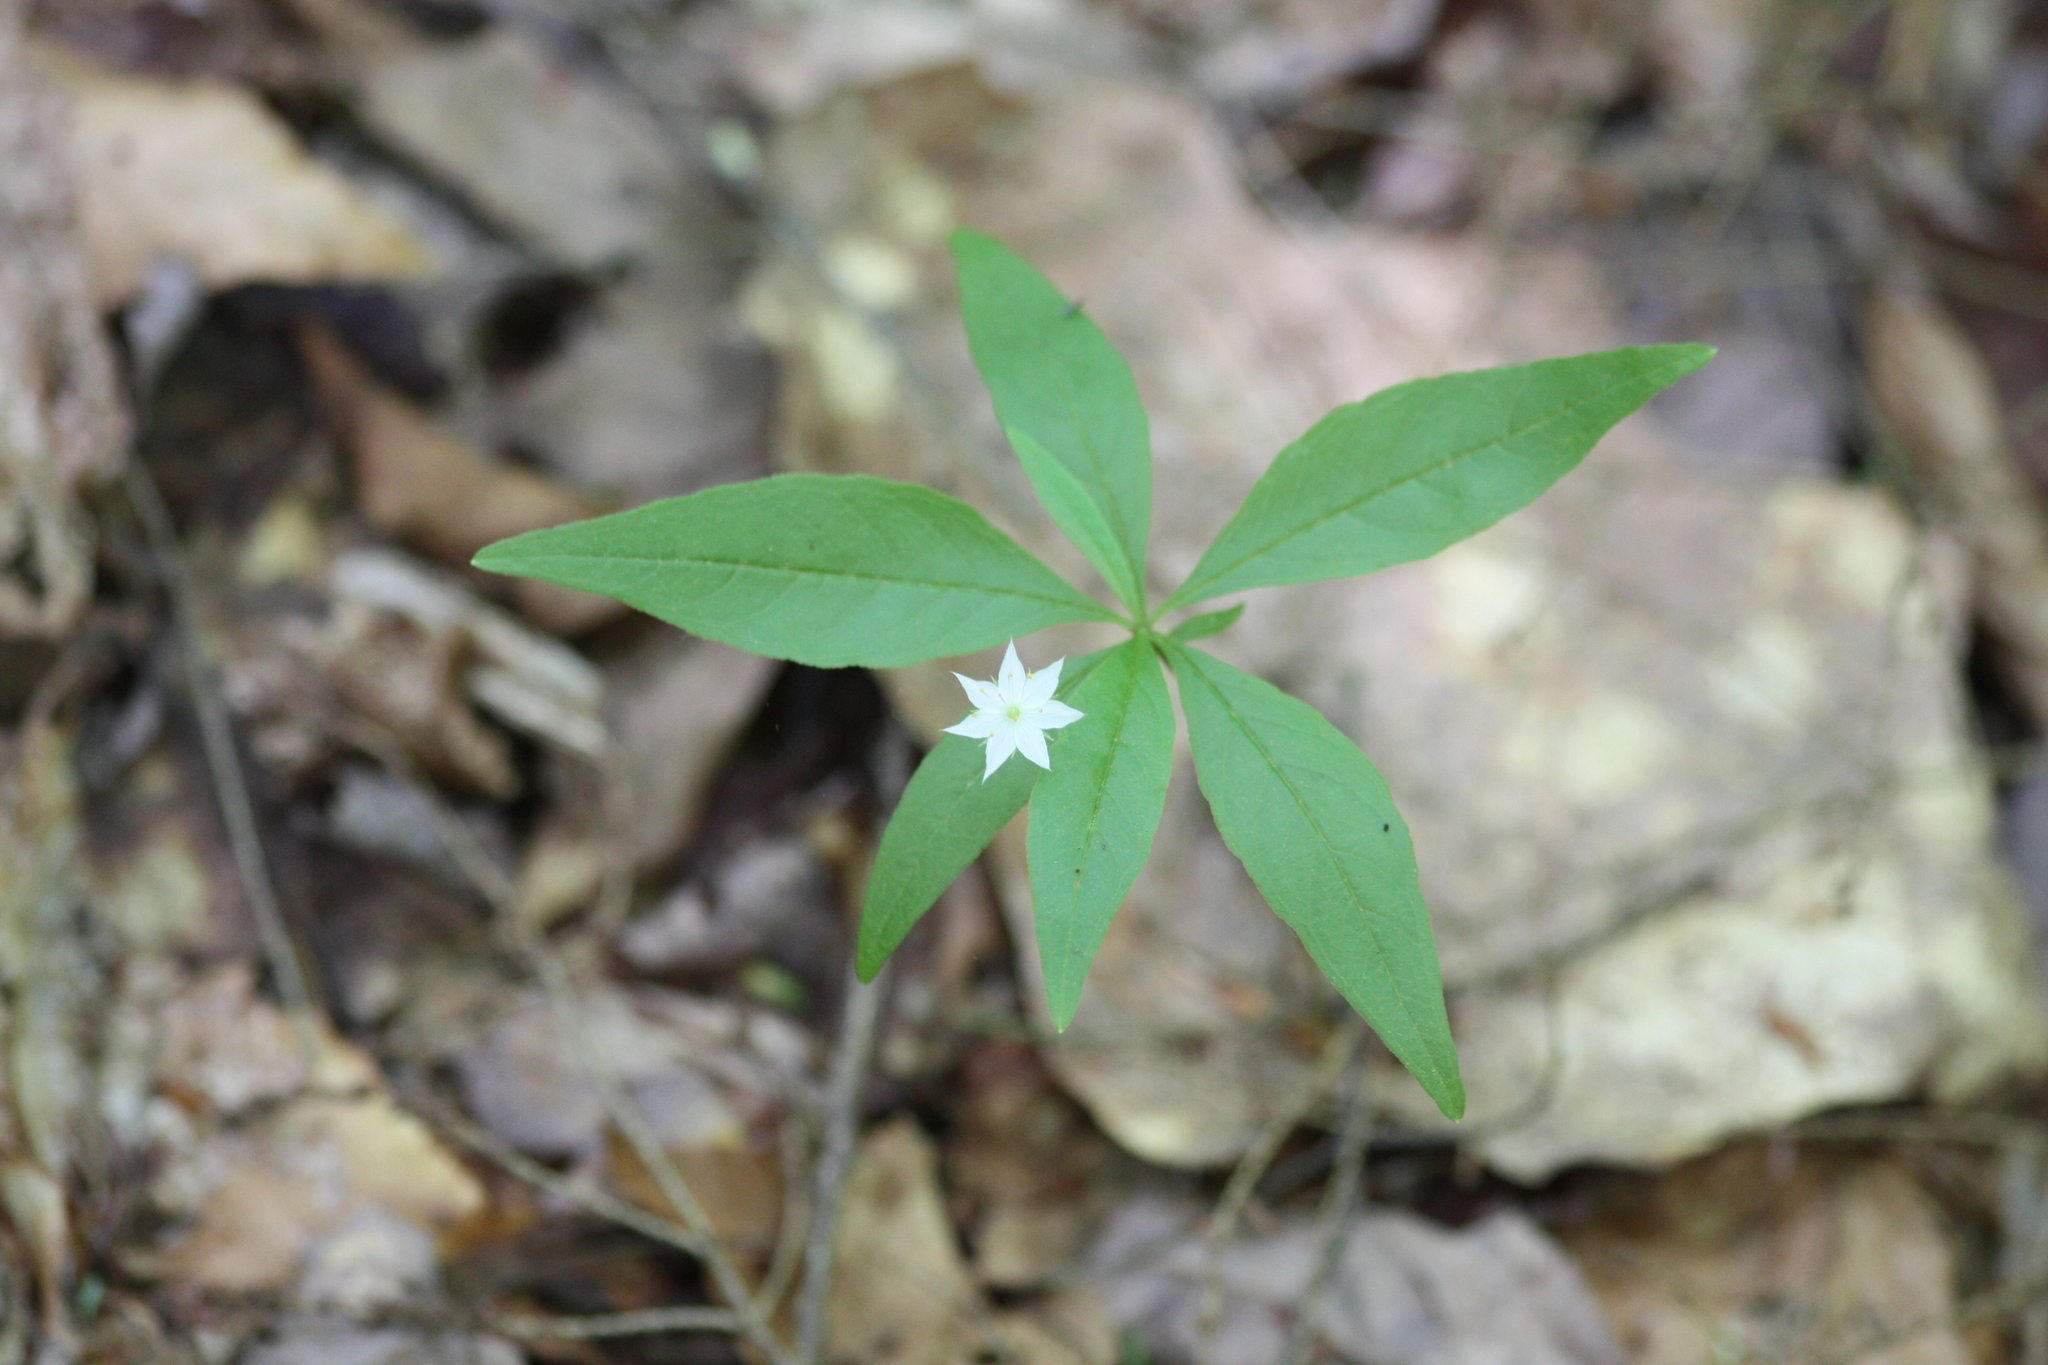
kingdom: Plantae
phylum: Tracheophyta
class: Magnoliopsida
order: Ericales
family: Primulaceae
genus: Lysimachia
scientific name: Lysimachia borealis
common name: American starflower
